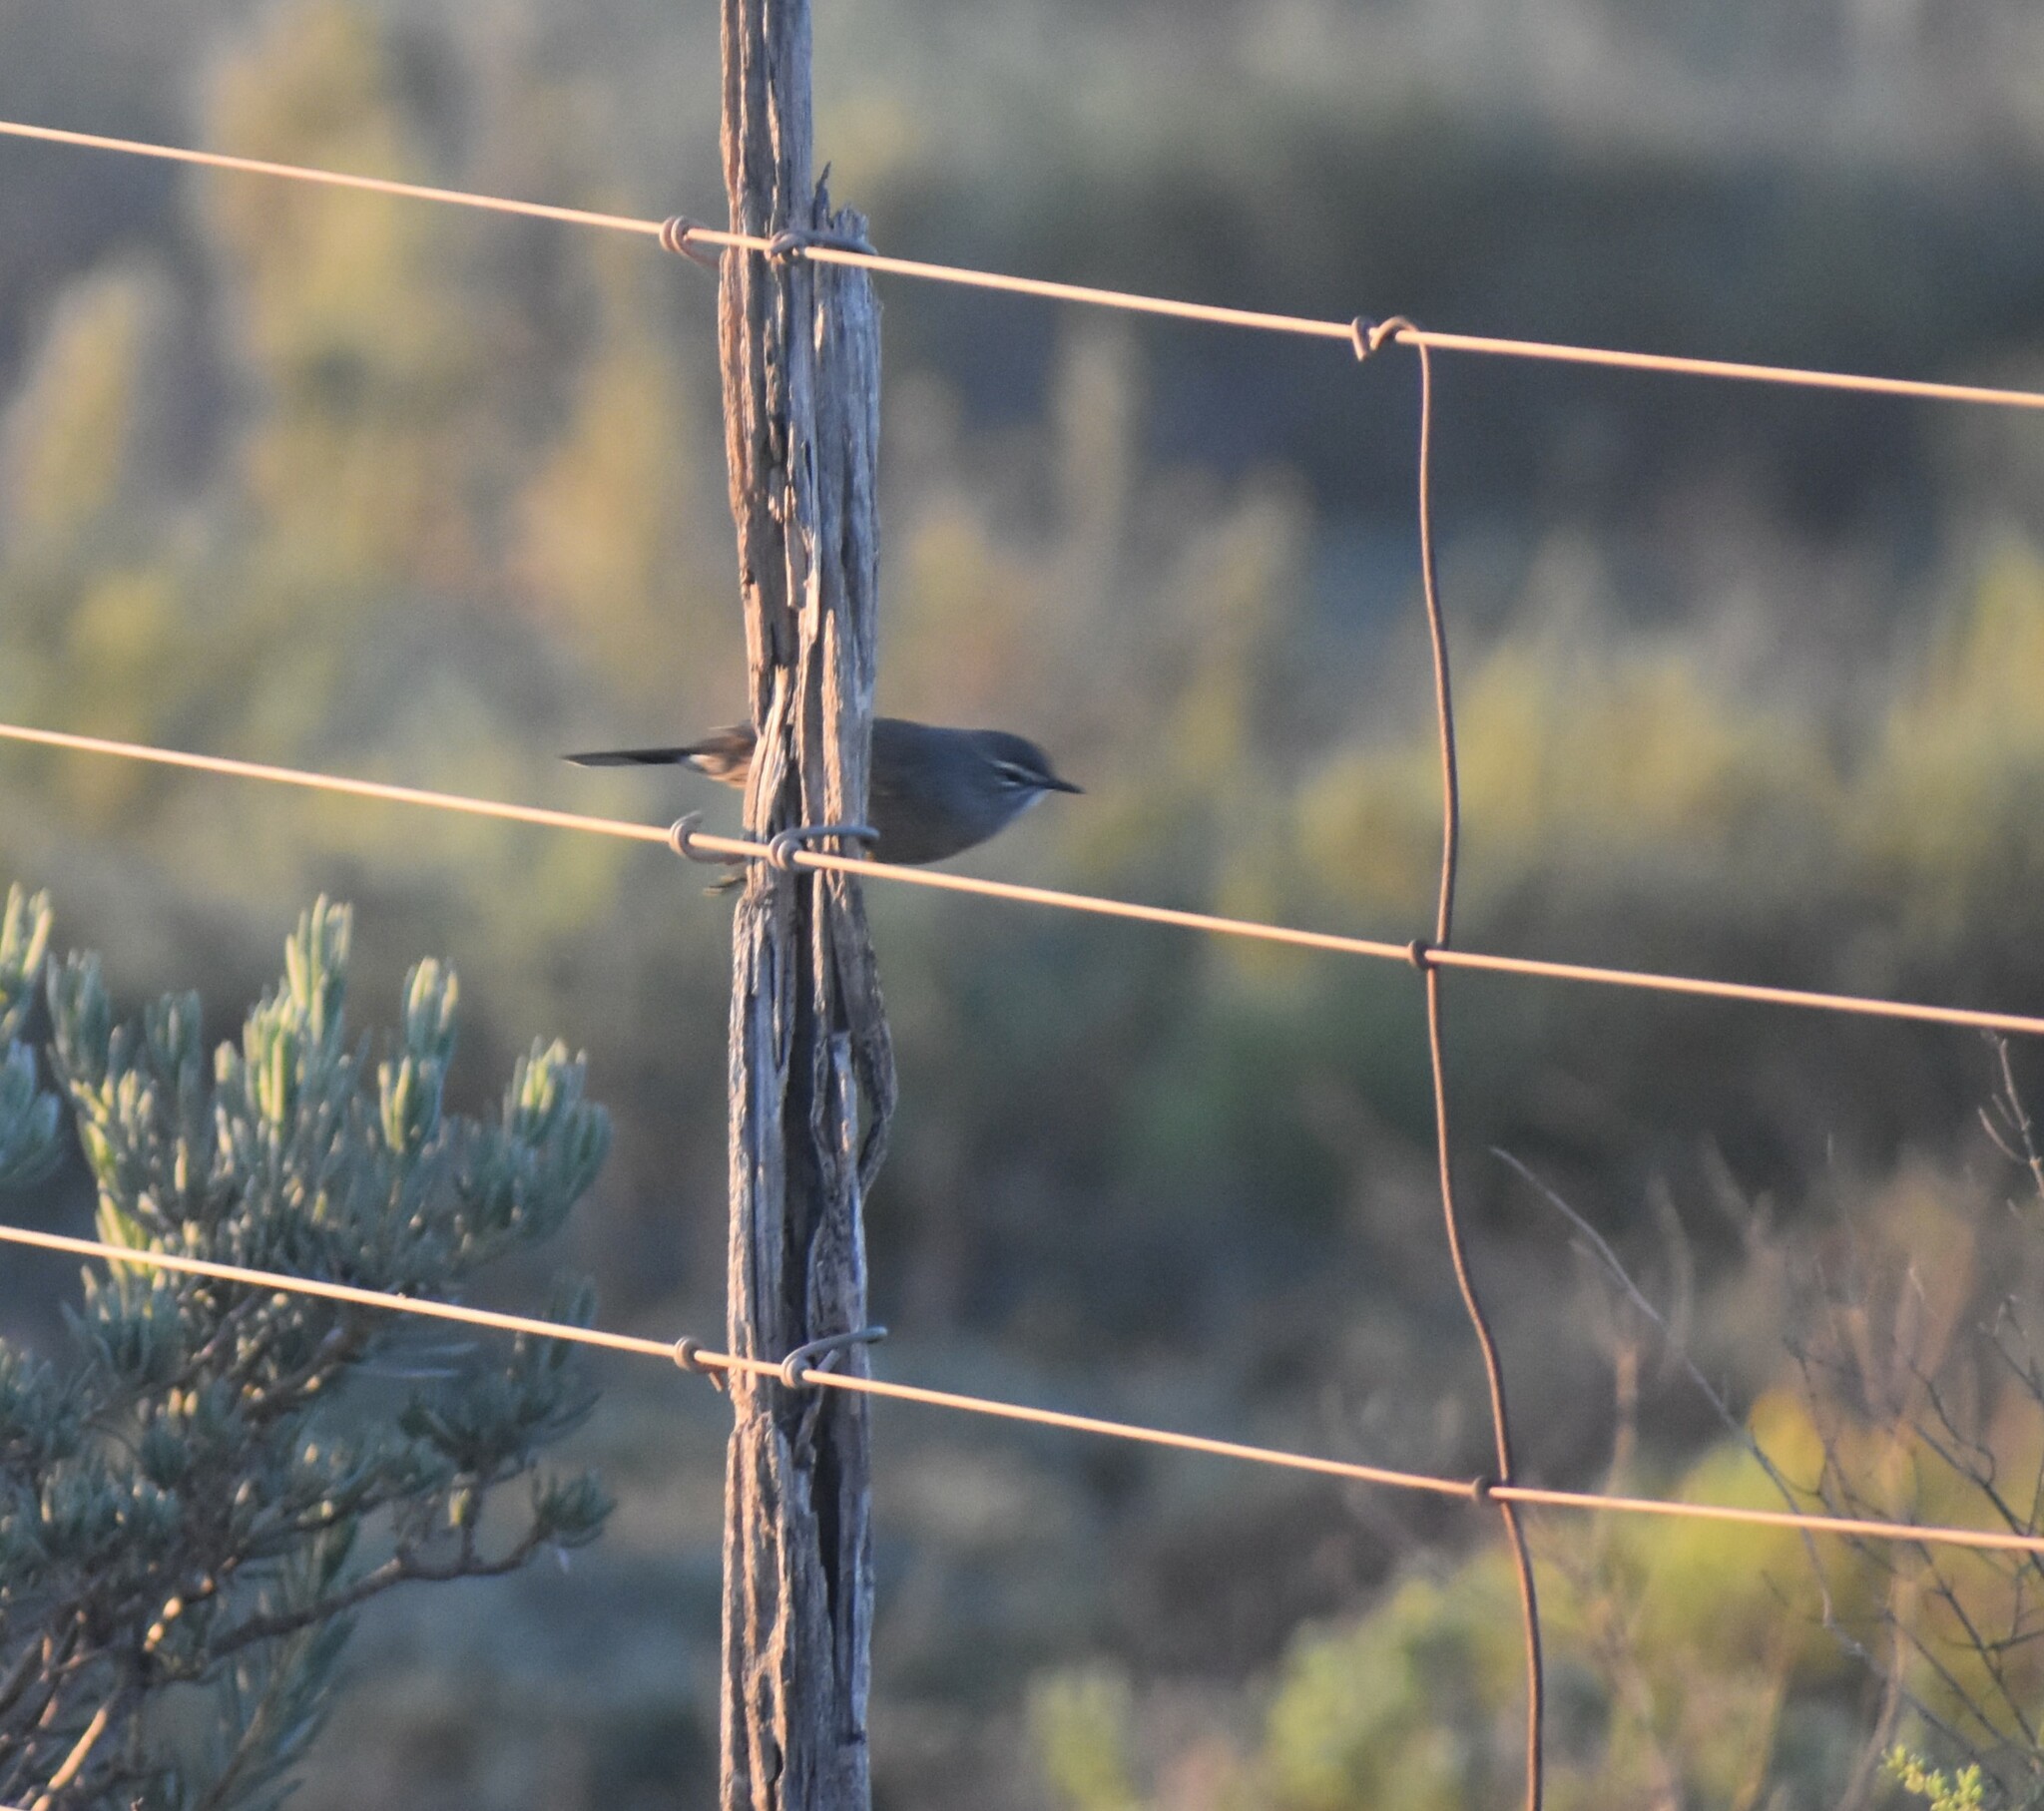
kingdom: Animalia
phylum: Chordata
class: Aves
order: Passeriformes
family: Muscicapidae
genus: Erythropygia
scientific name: Erythropygia coryphoeus
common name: Karoo scrub robin
